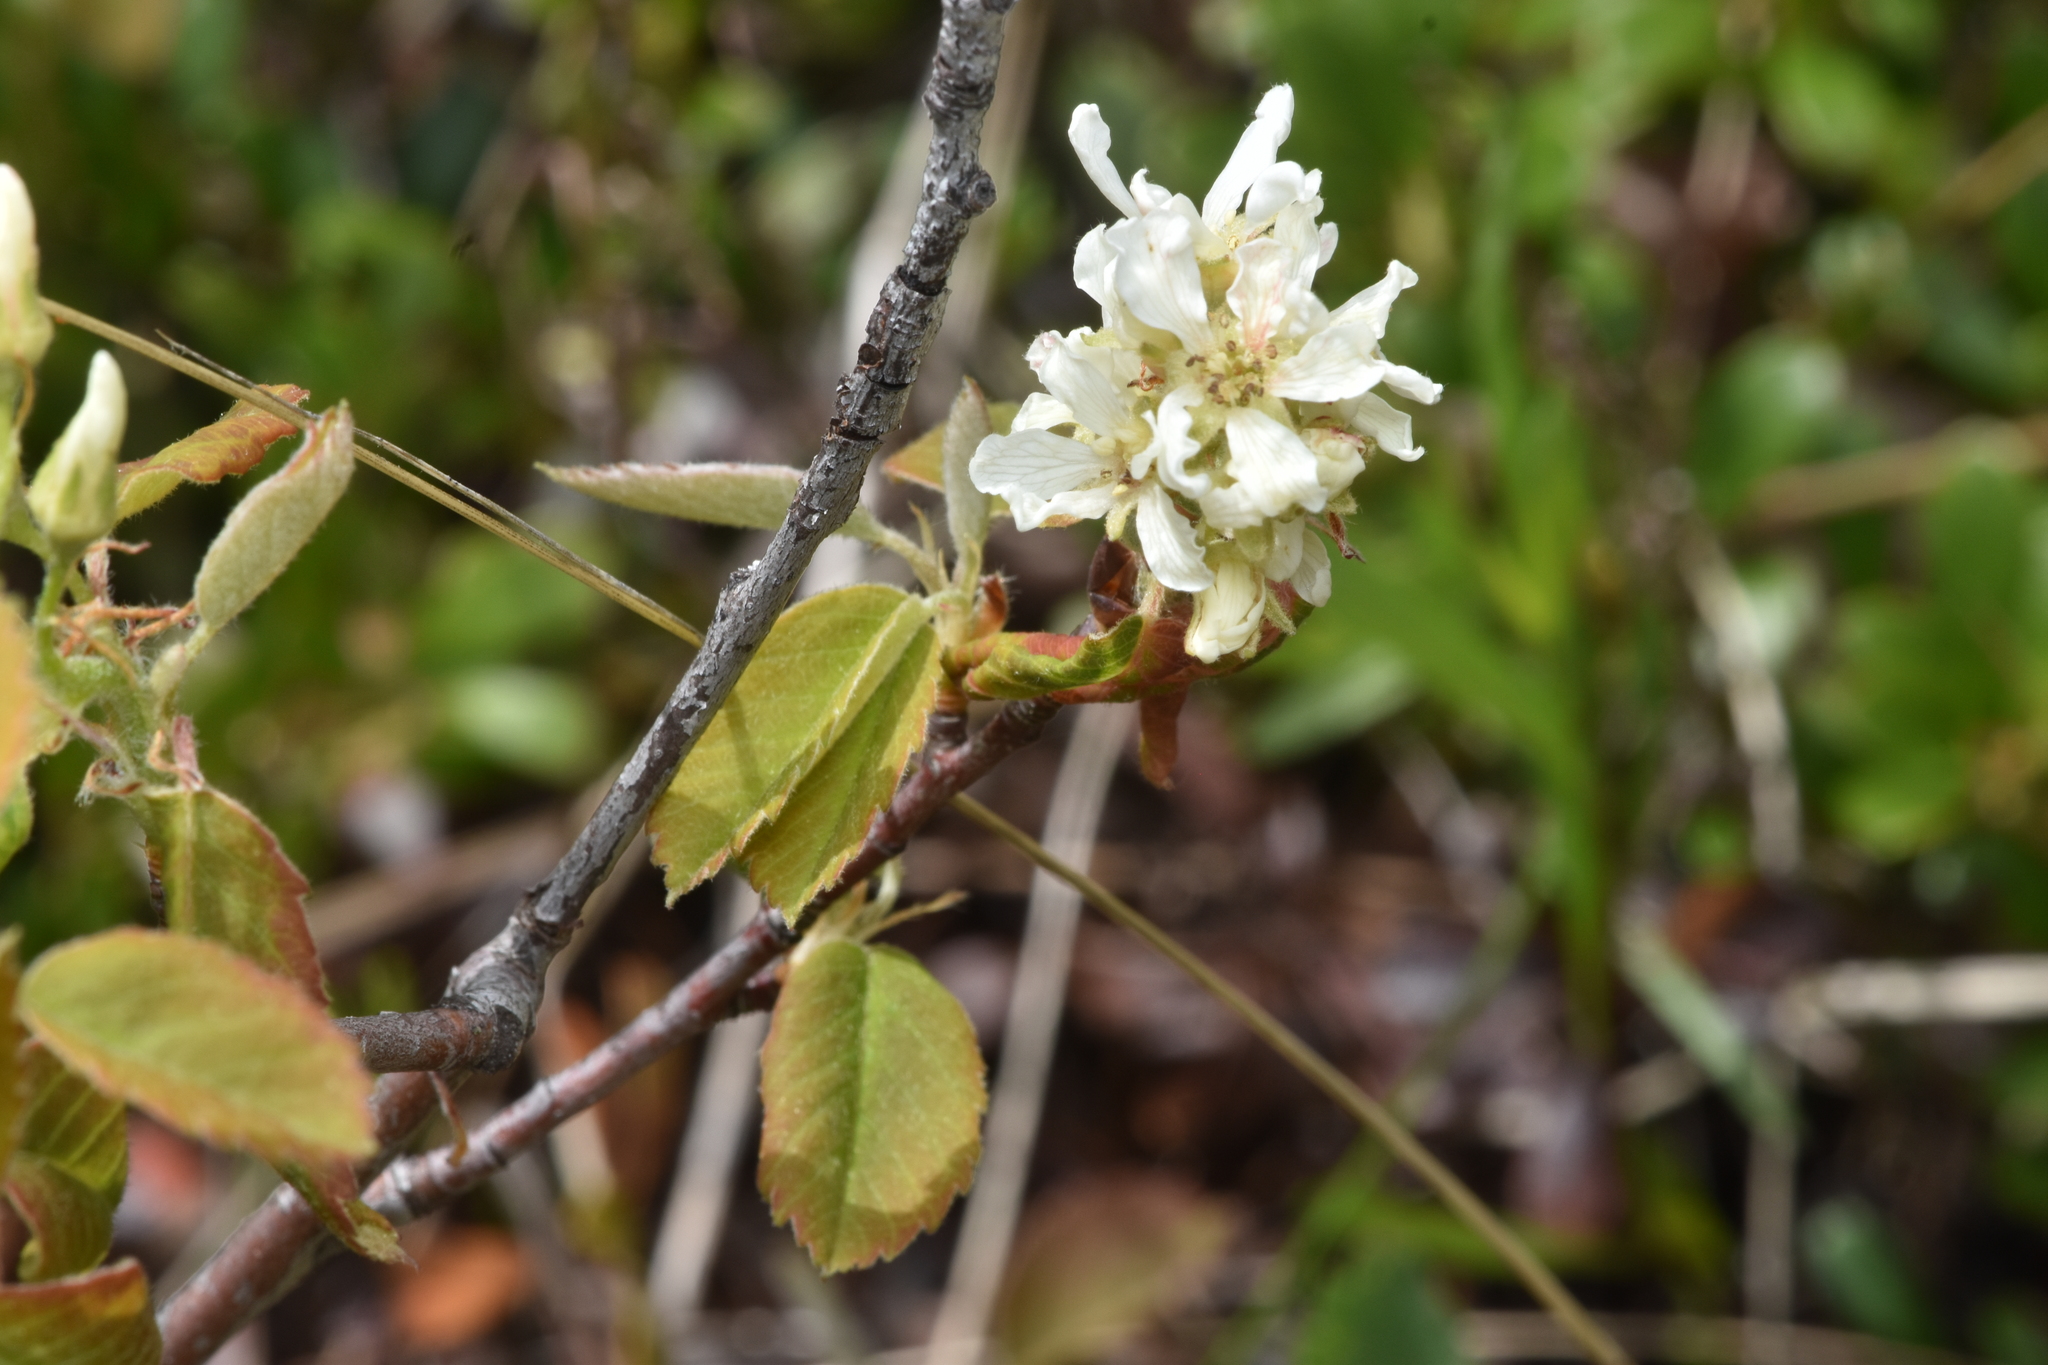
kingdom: Plantae
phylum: Tracheophyta
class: Magnoliopsida
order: Rosales
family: Rosaceae
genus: Amelanchier
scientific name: Amelanchier alnifolia
